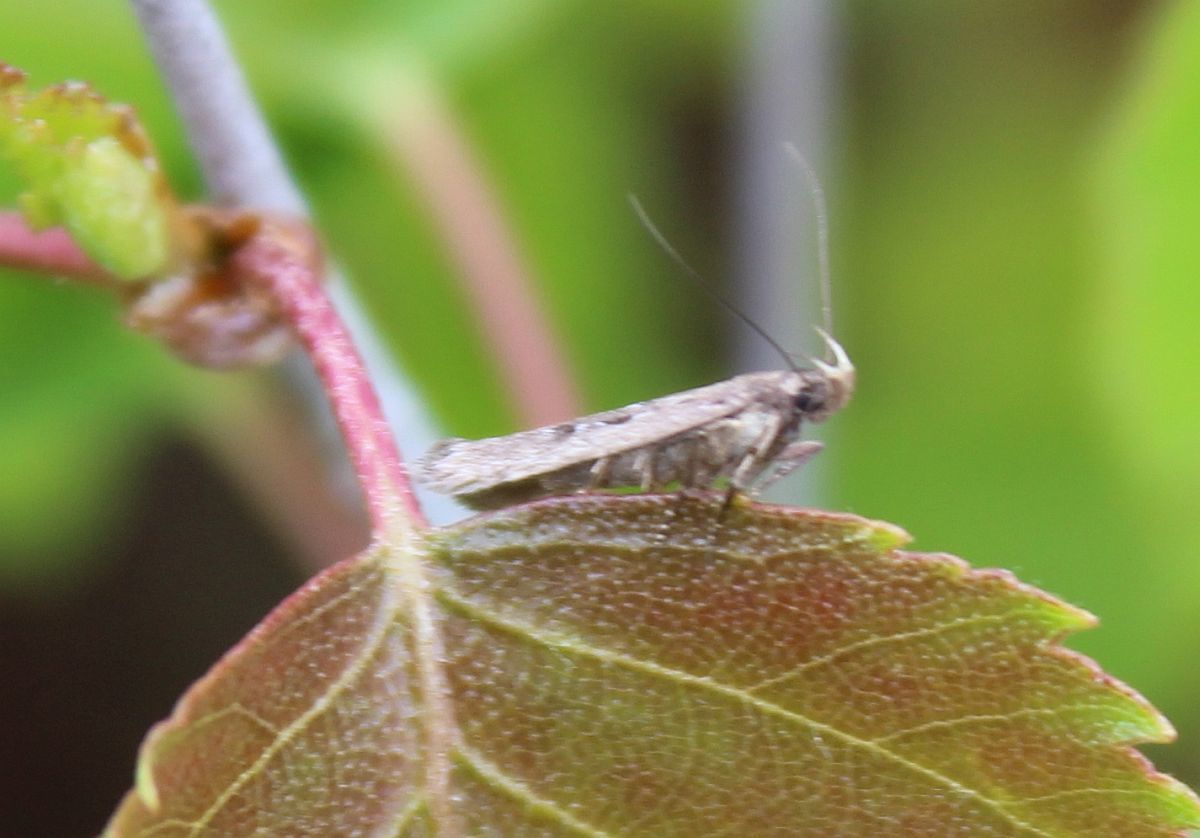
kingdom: Animalia
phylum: Arthropoda
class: Insecta
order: Lepidoptera
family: Gelechiidae
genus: Neofaculta
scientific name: Neofaculta ericetella
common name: Heather groundling
